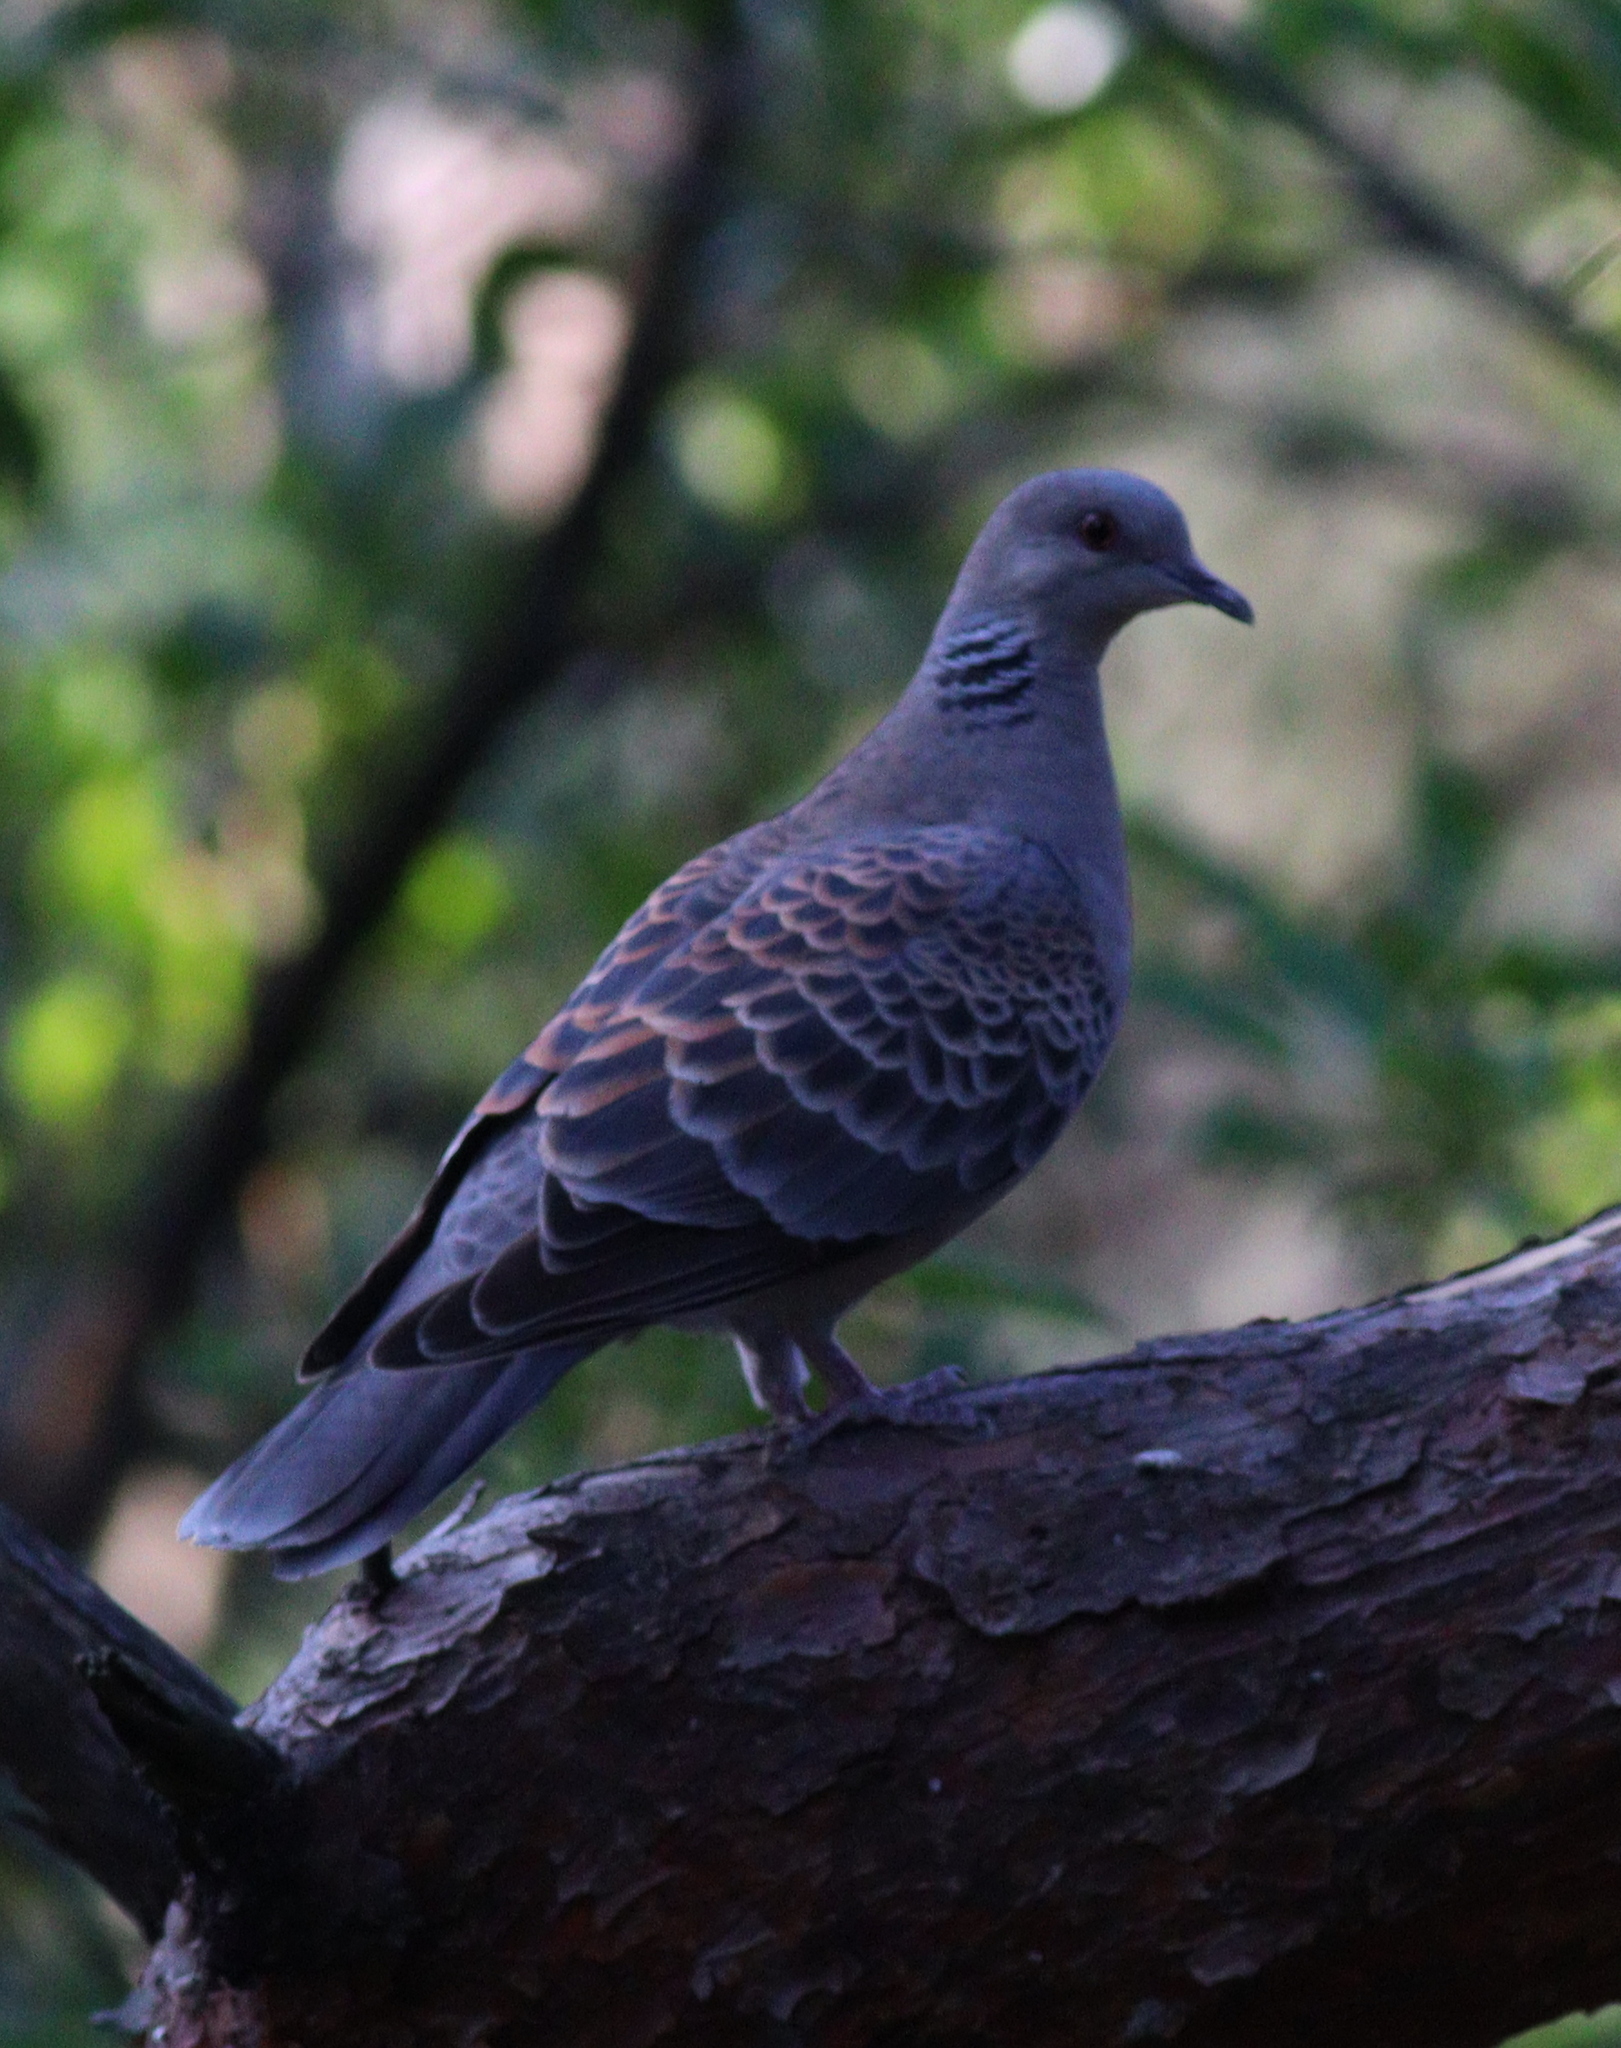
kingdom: Animalia
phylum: Chordata
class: Aves
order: Columbiformes
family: Columbidae
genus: Streptopelia
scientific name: Streptopelia orientalis
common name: Oriental turtle dove
